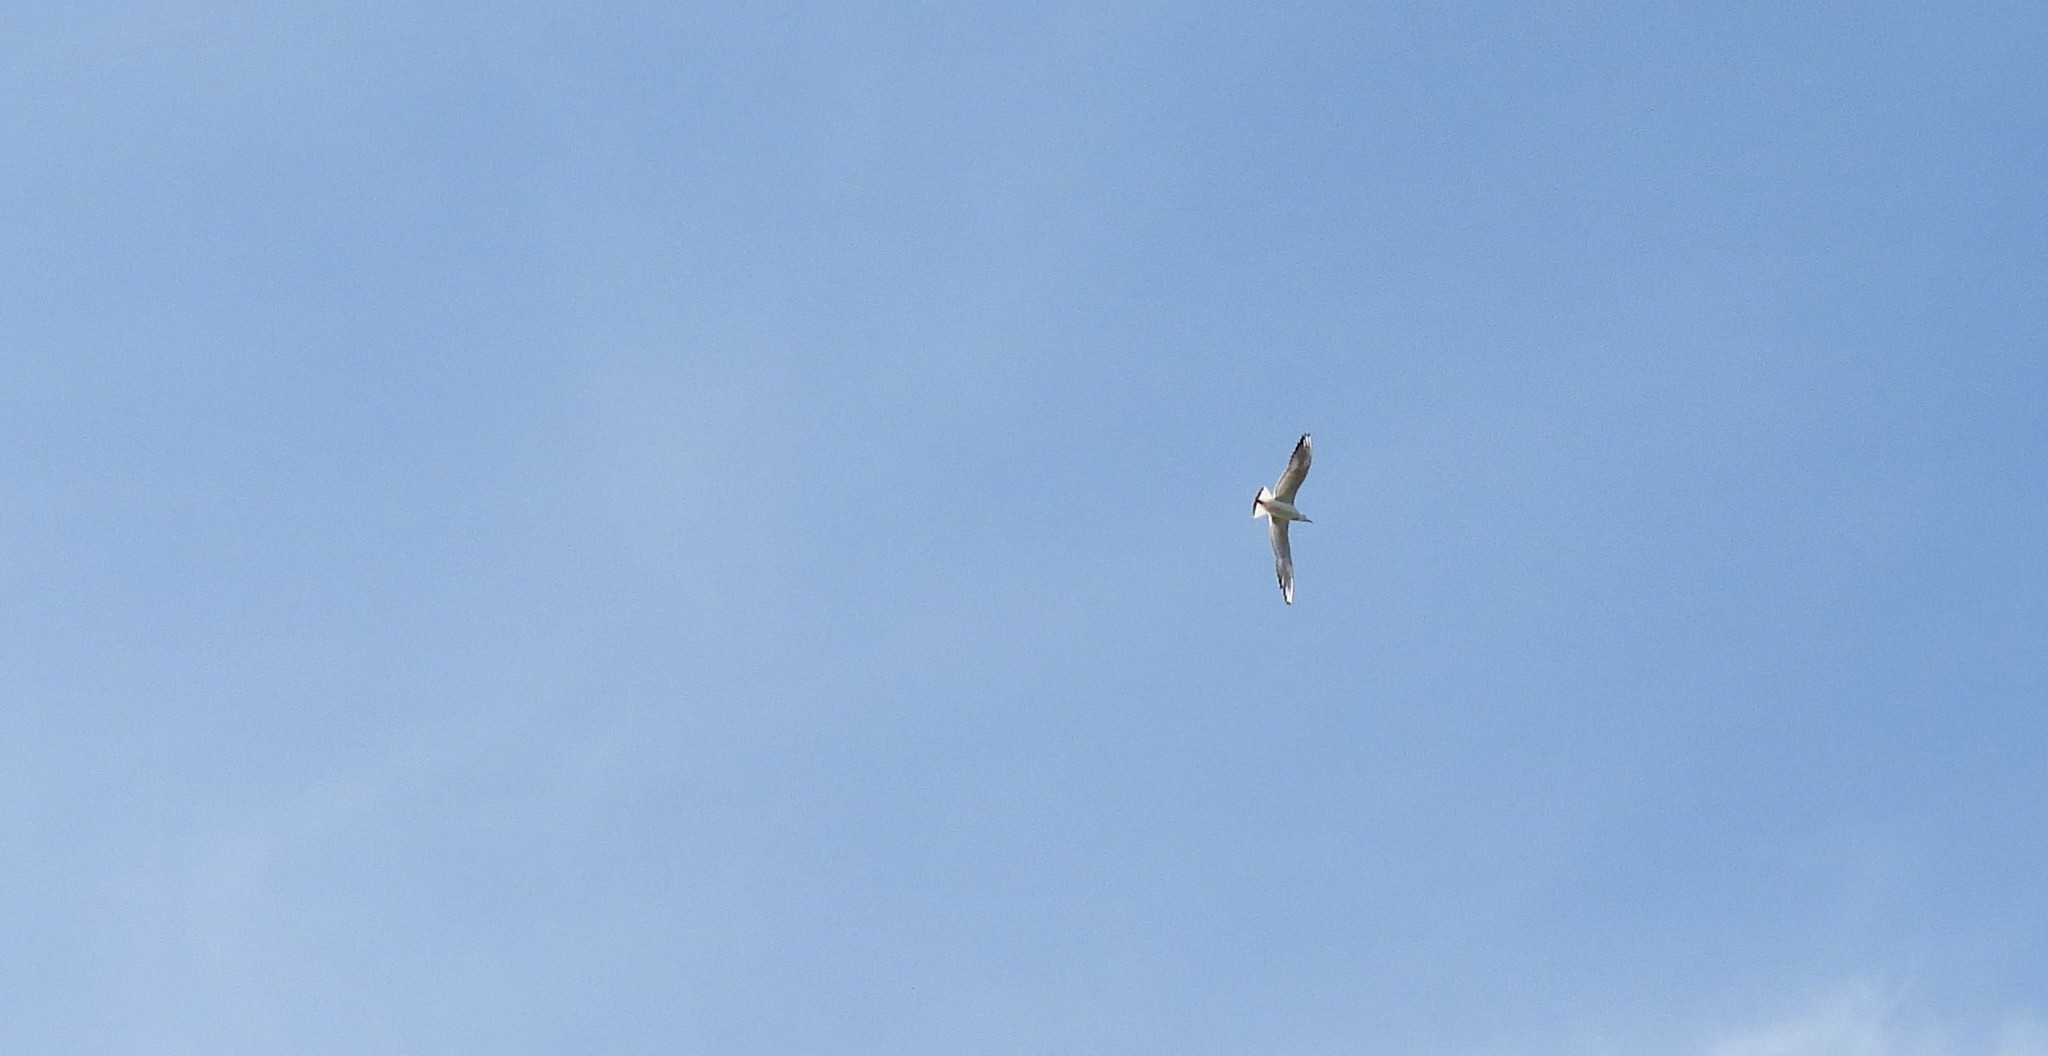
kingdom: Animalia
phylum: Chordata
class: Aves
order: Charadriiformes
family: Laridae
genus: Chroicocephalus
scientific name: Chroicocephalus ridibundus
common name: Black-headed gull
